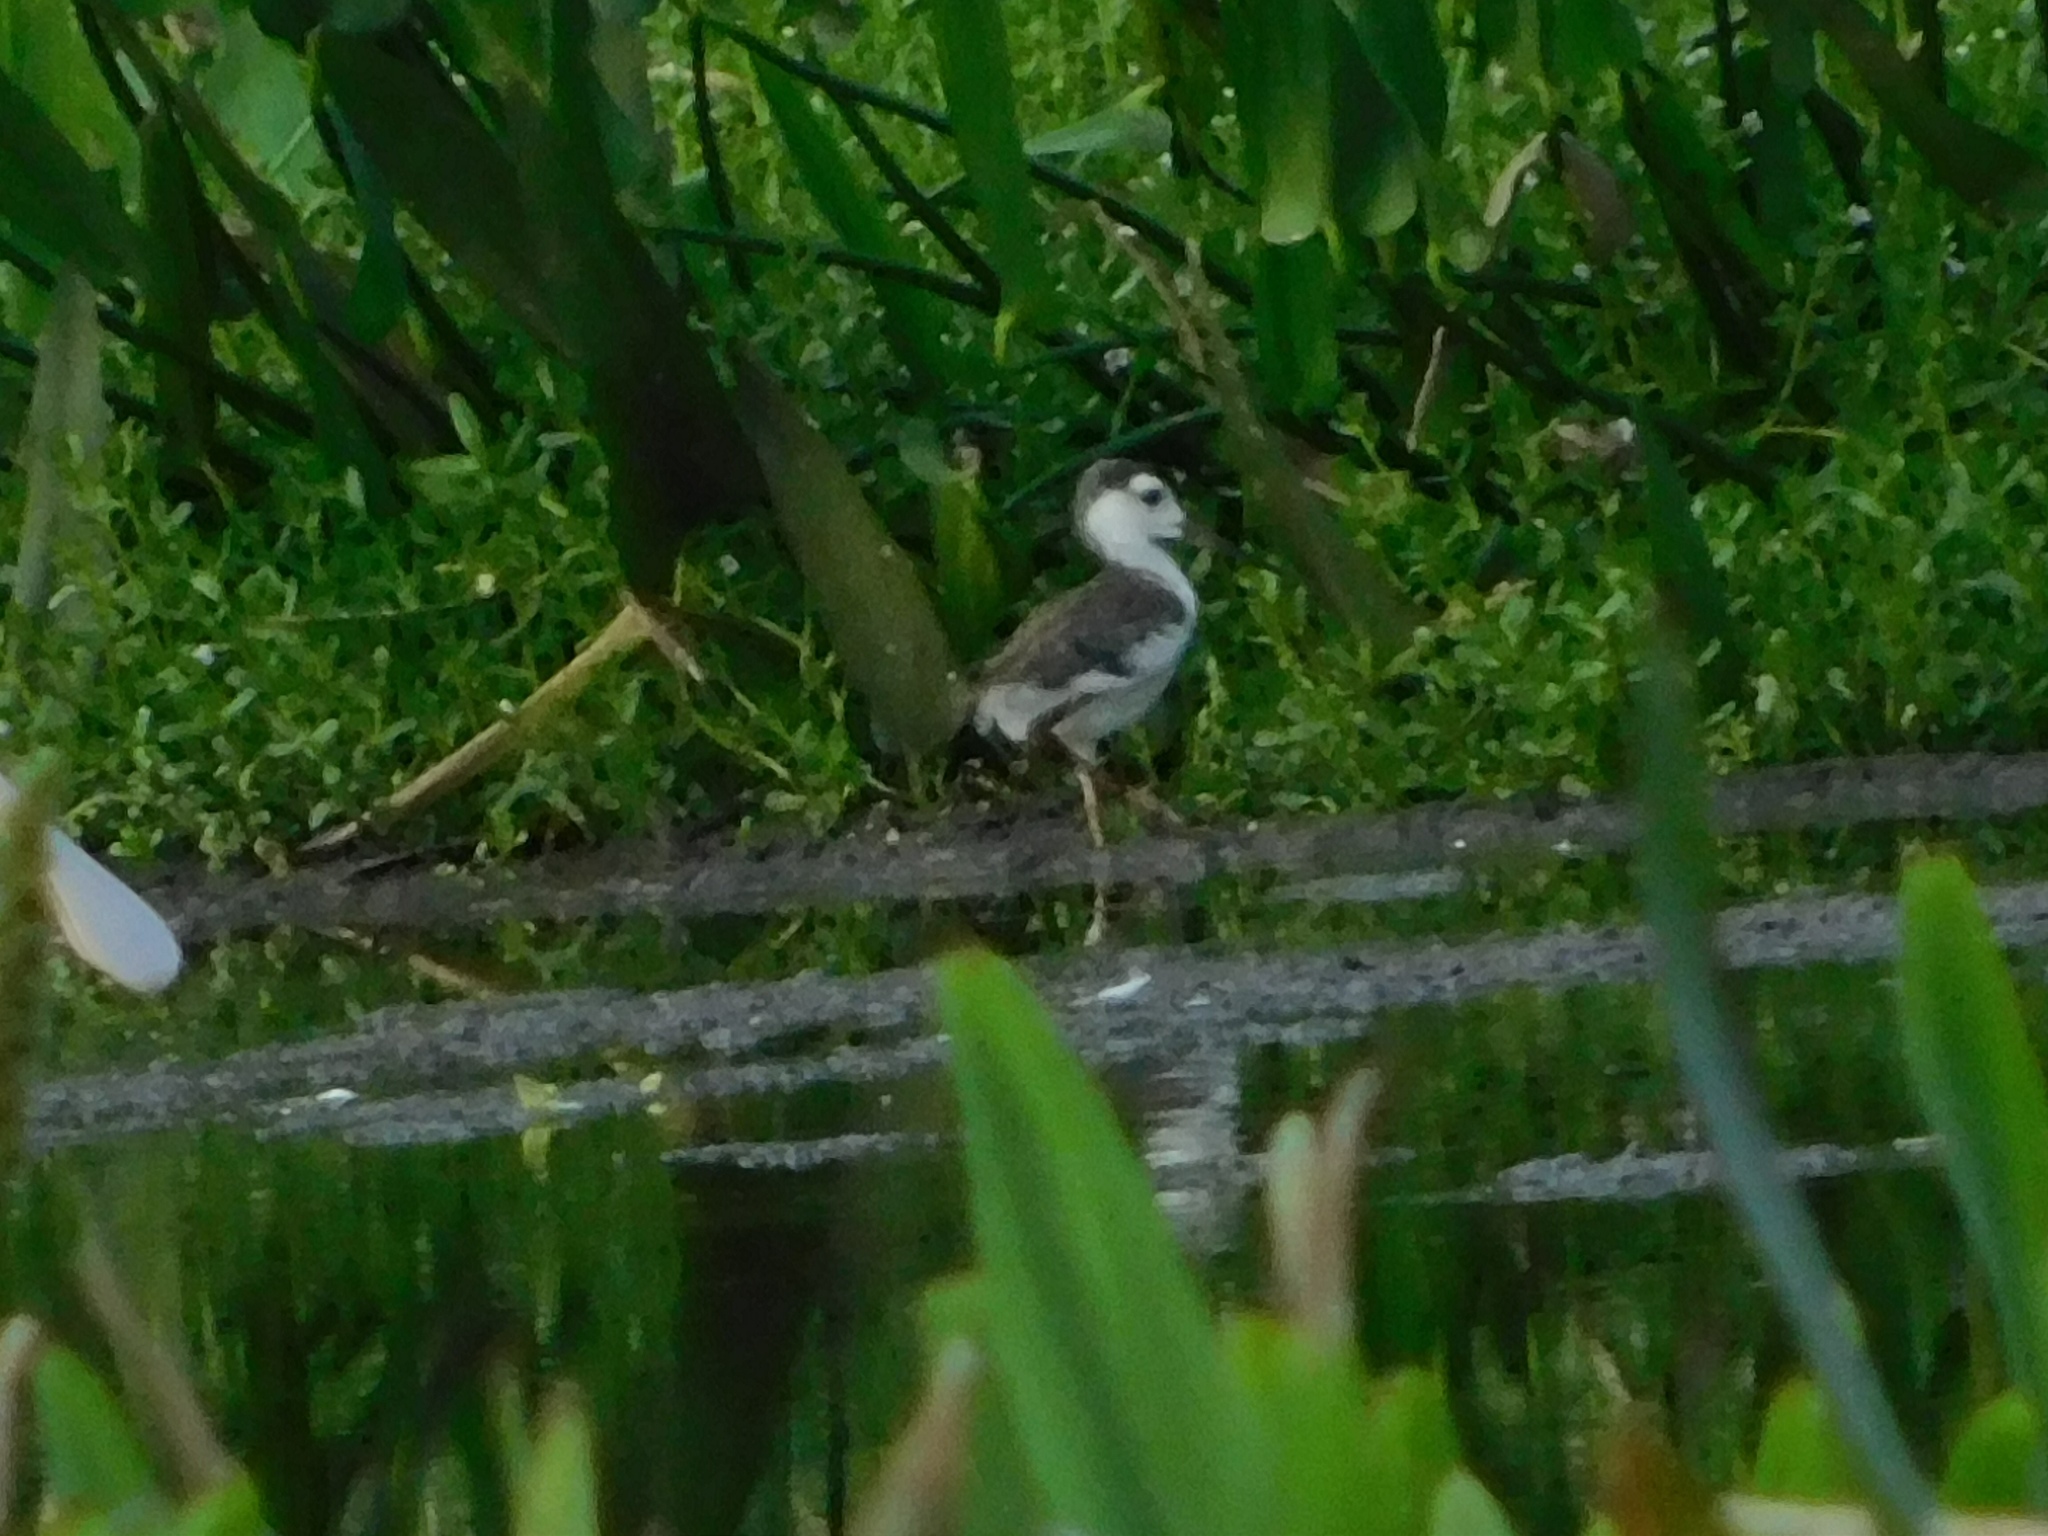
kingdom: Animalia
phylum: Chordata
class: Aves
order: Charadriiformes
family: Recurvirostridae
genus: Himantopus
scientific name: Himantopus mexicanus
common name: Black-necked stilt
